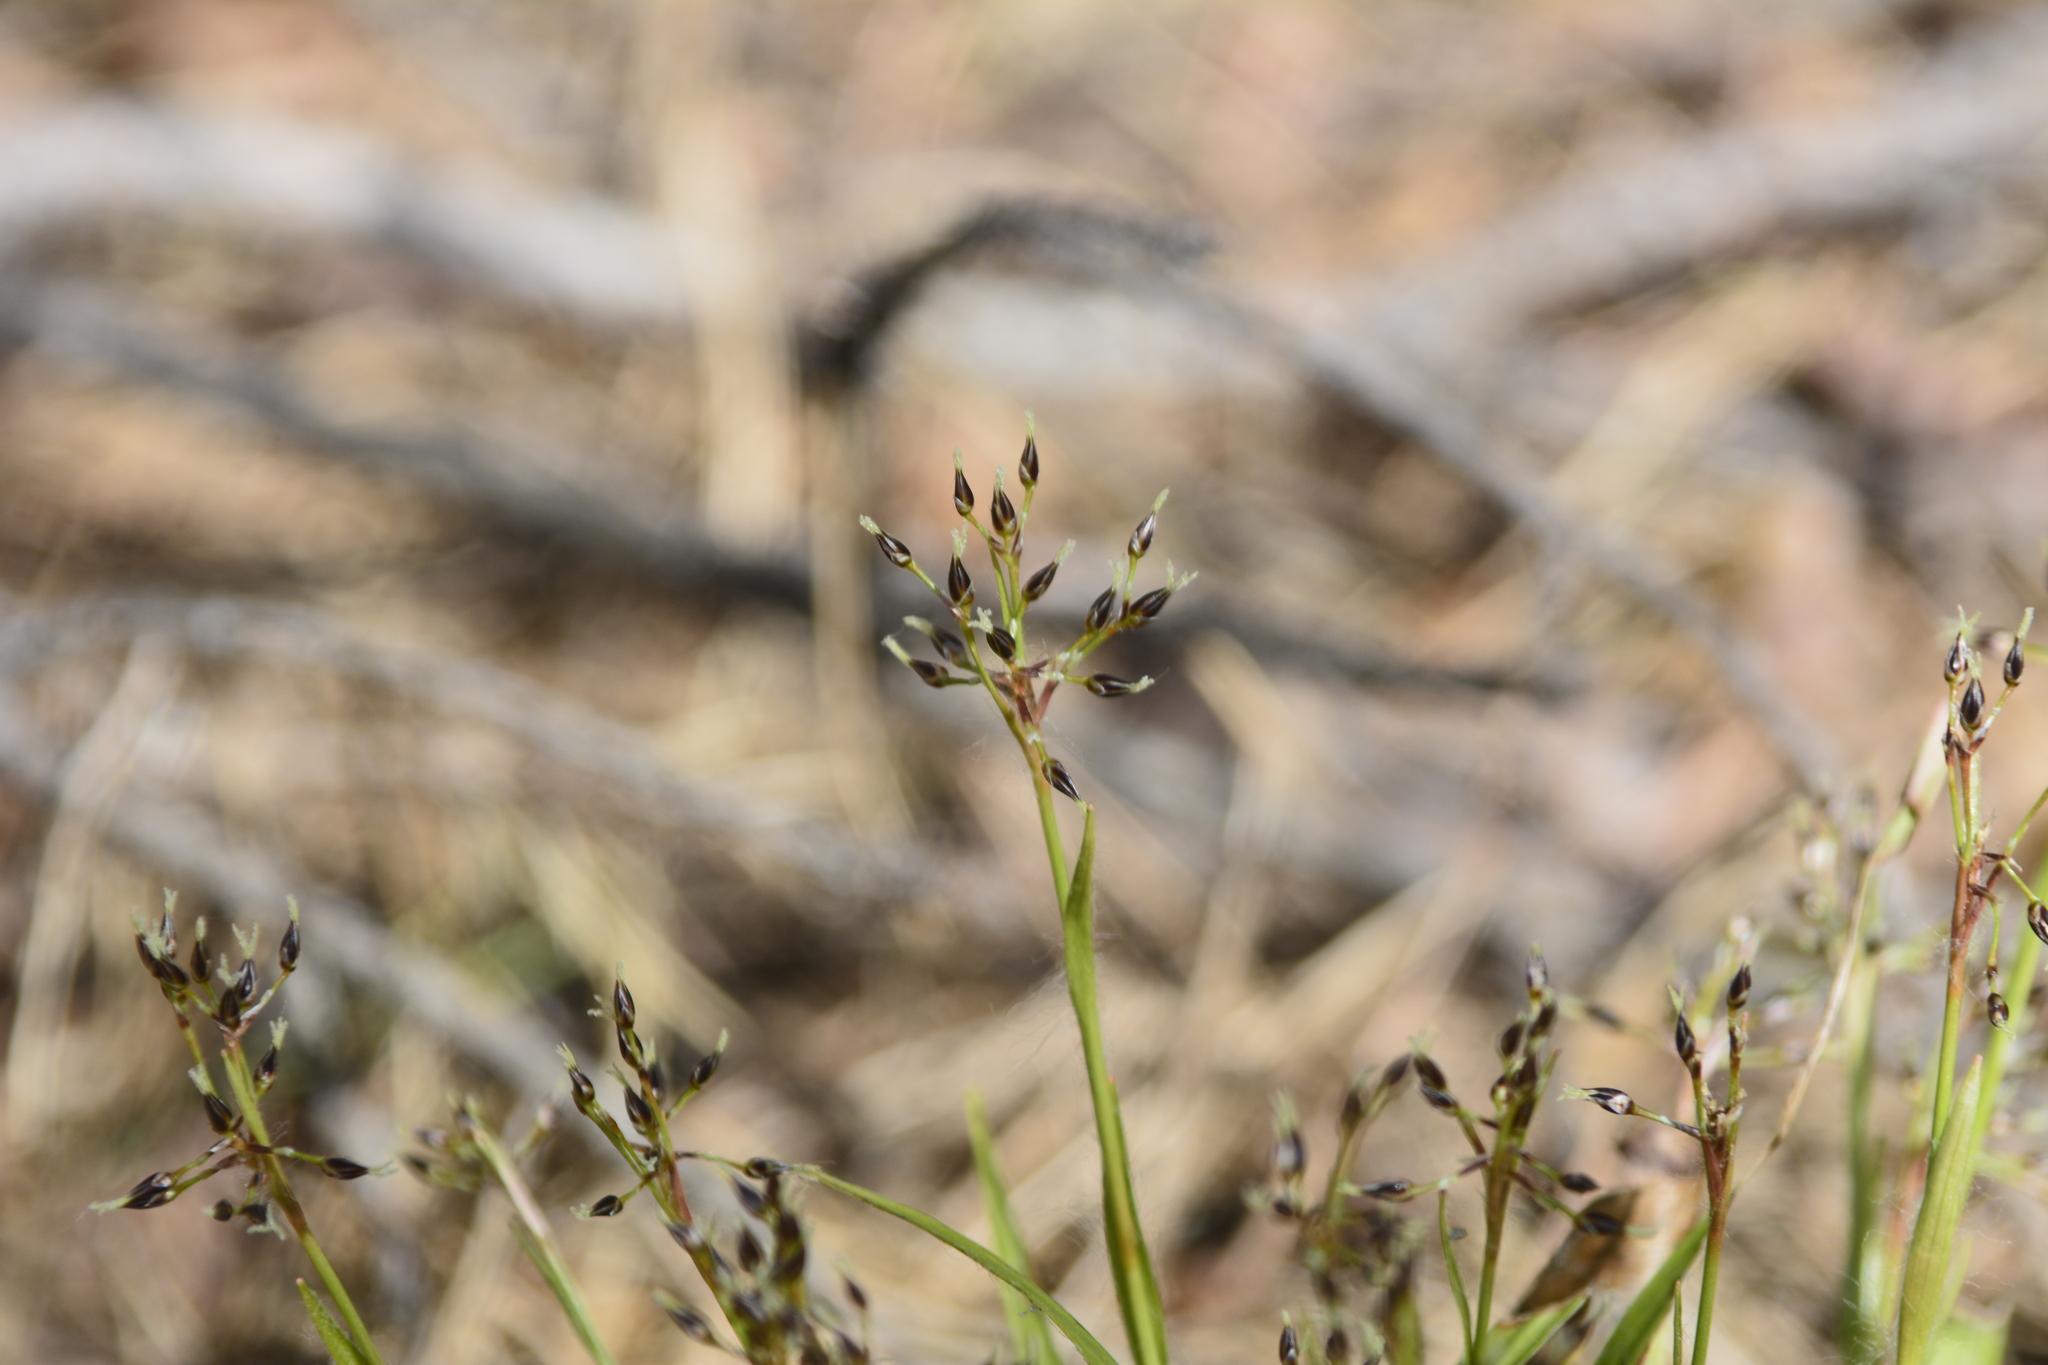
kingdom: Plantae
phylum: Tracheophyta
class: Liliopsida
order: Poales
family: Juncaceae
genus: Luzula
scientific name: Luzula pilosa
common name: Hairy wood-rush
